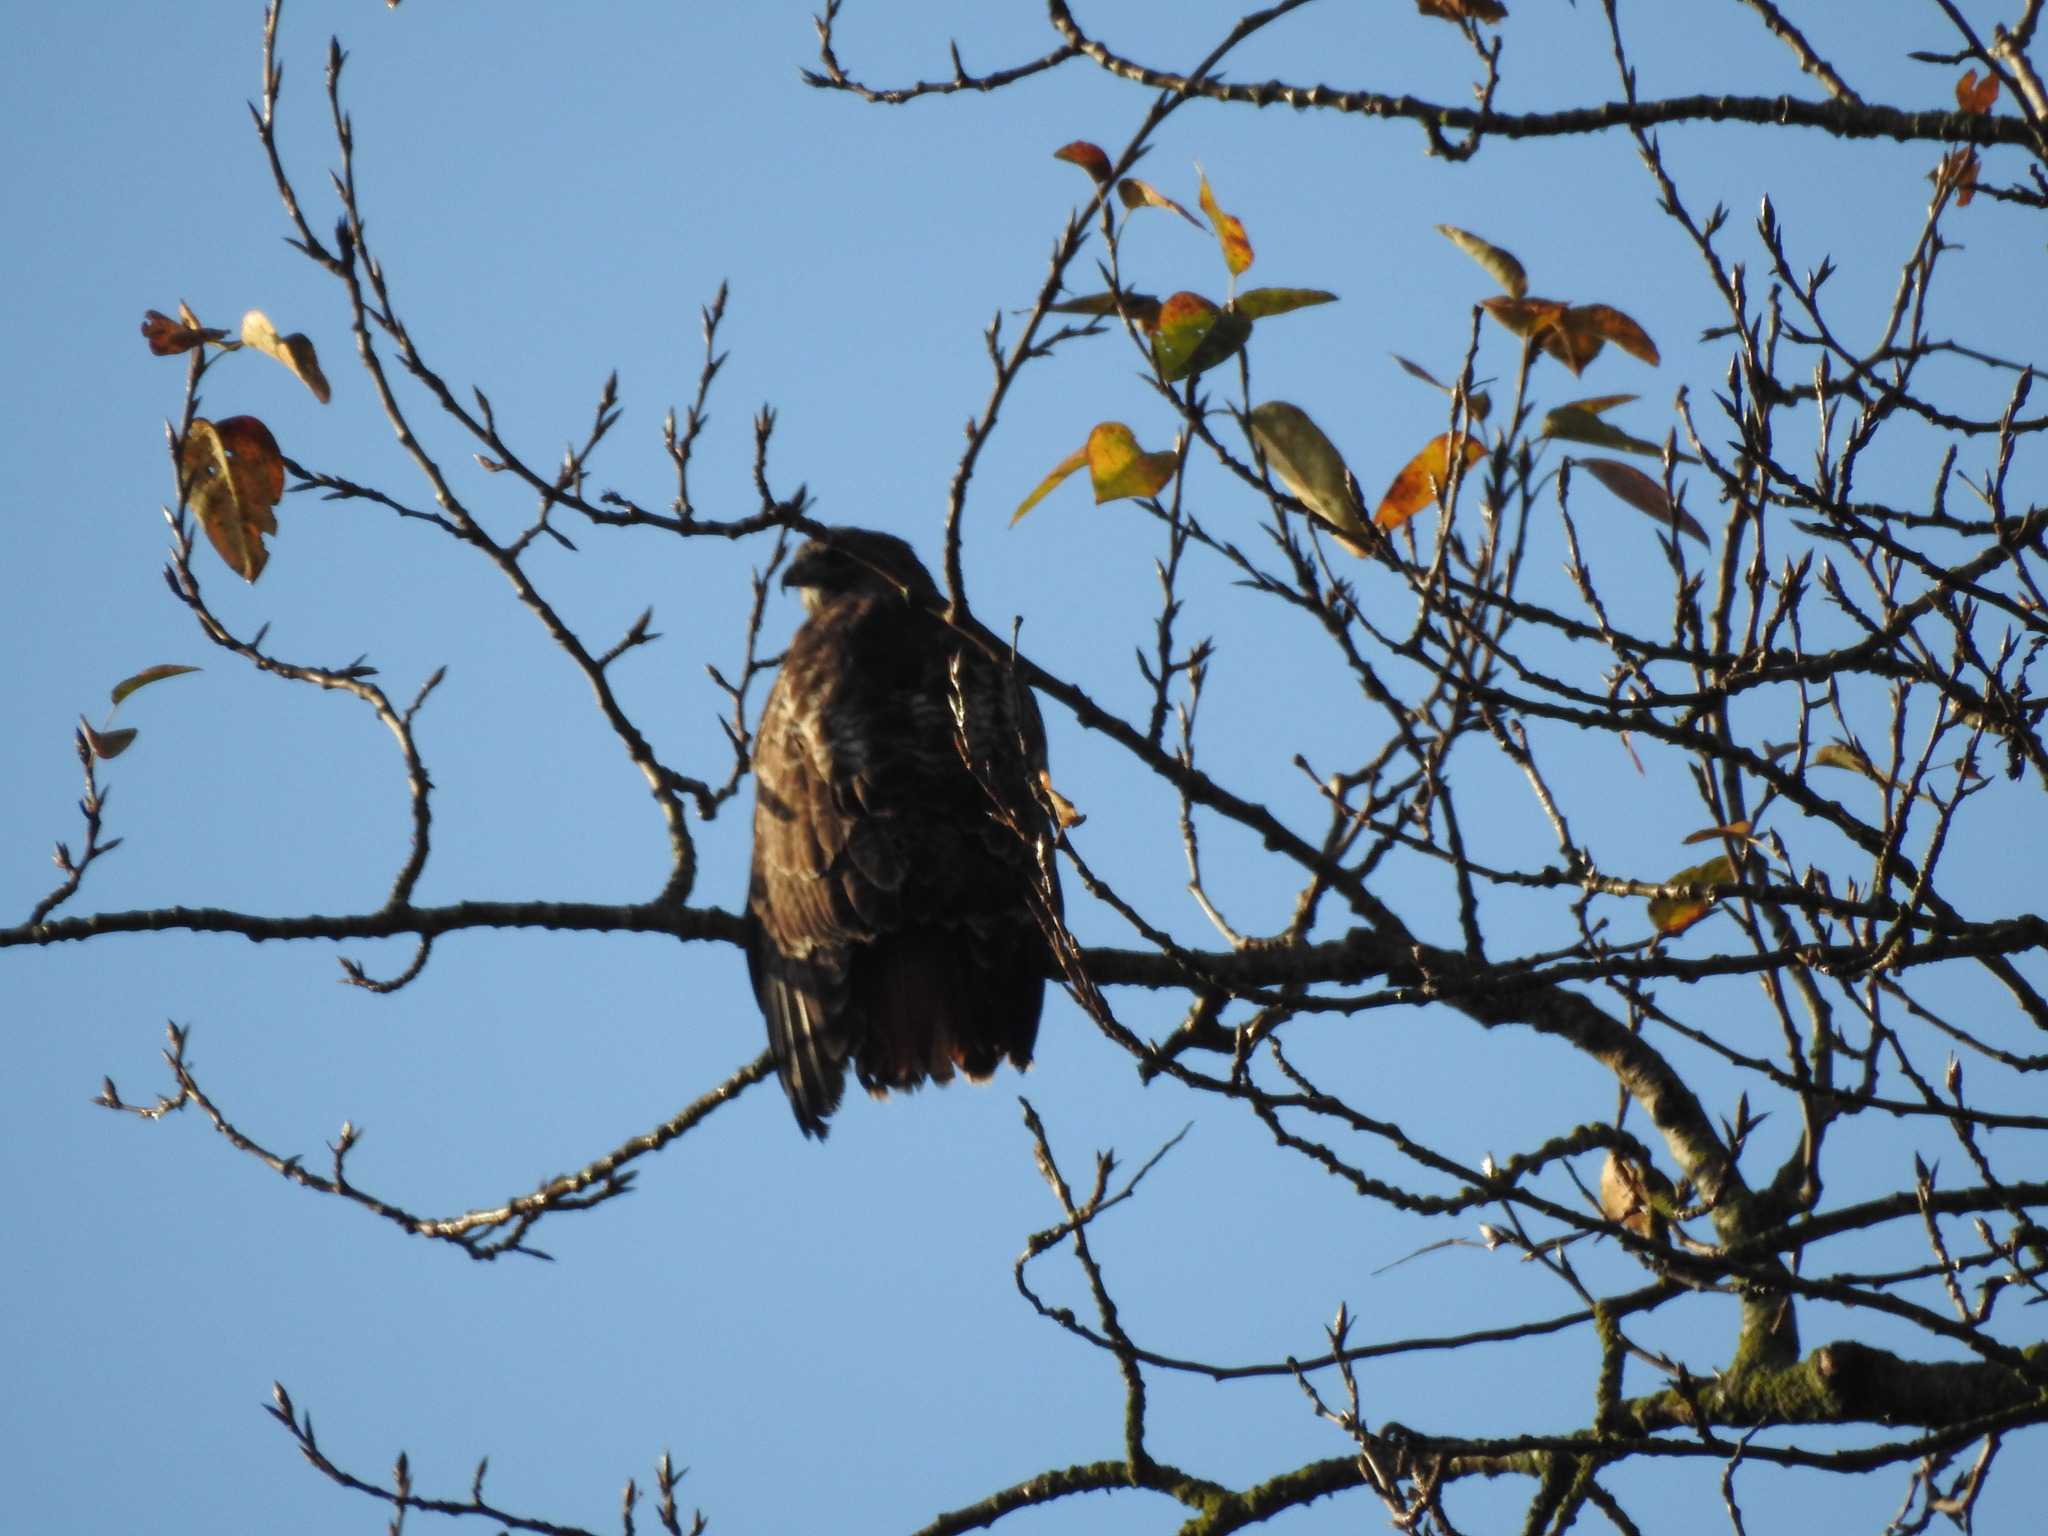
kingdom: Animalia
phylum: Chordata
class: Aves
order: Accipitriformes
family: Accipitridae
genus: Buteo
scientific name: Buteo jamaicensis
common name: Red-tailed hawk
